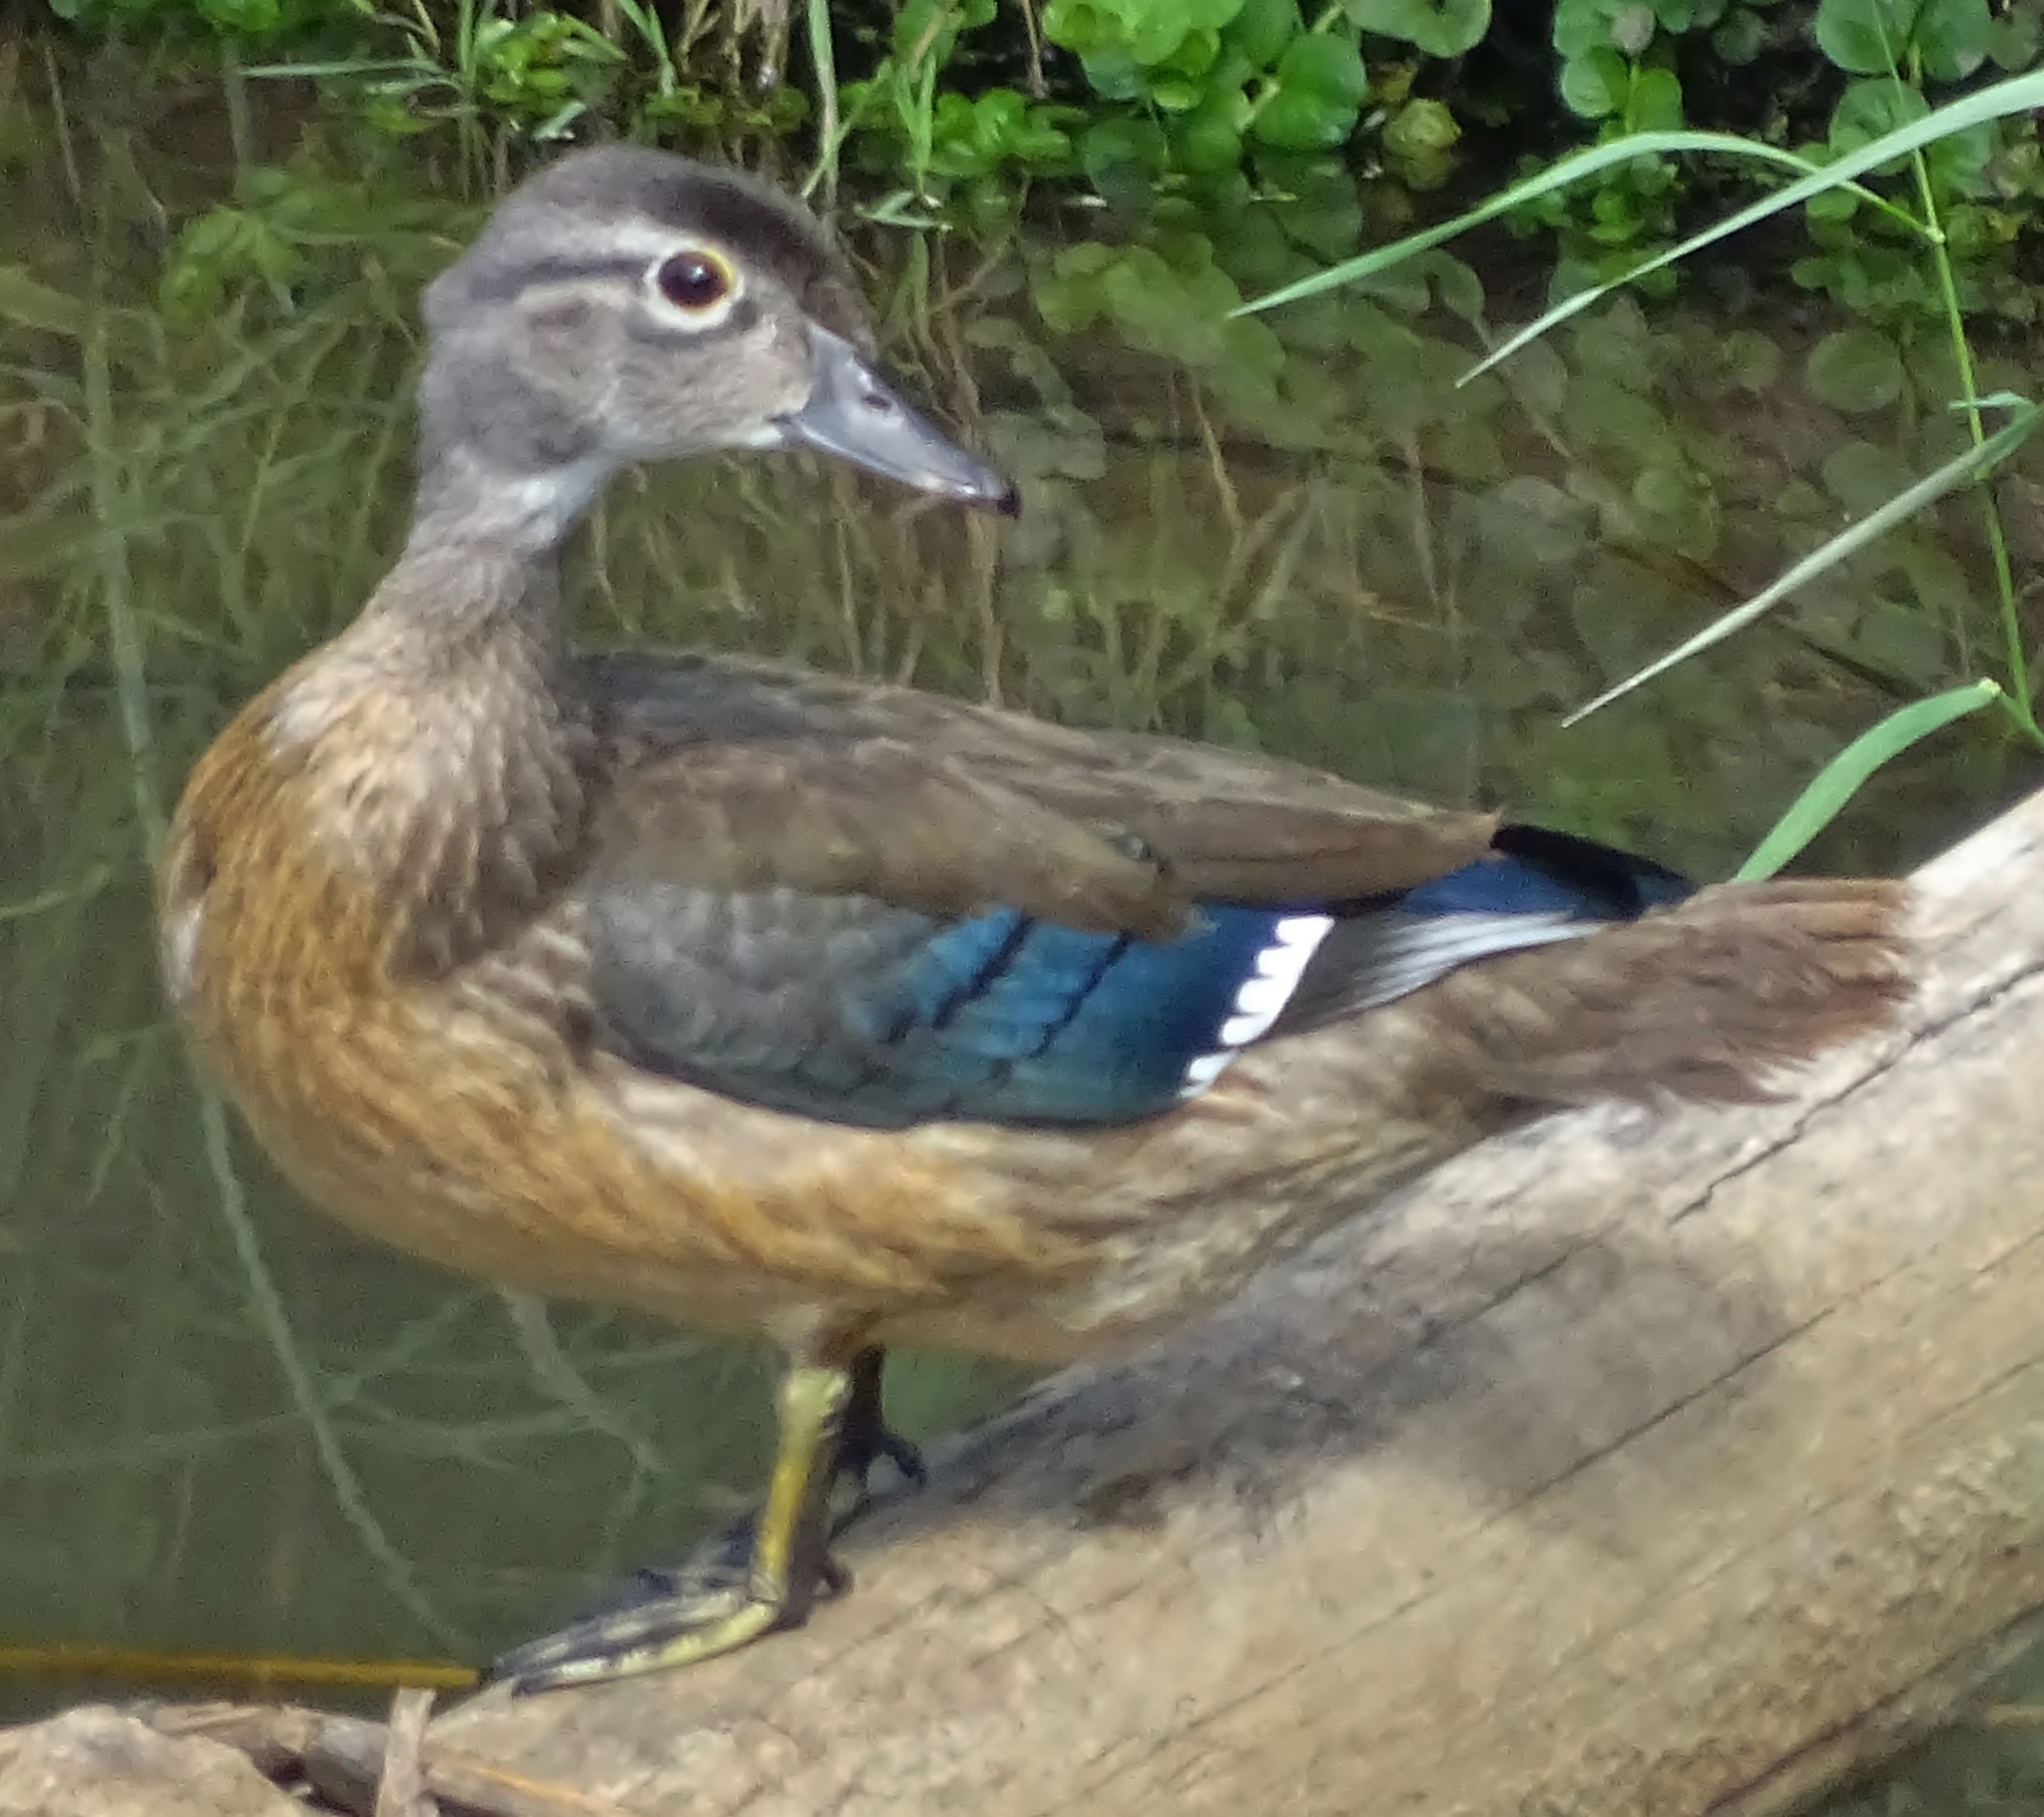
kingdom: Animalia
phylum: Chordata
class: Aves
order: Anseriformes
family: Anatidae
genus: Aix
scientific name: Aix sponsa
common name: Wood duck
